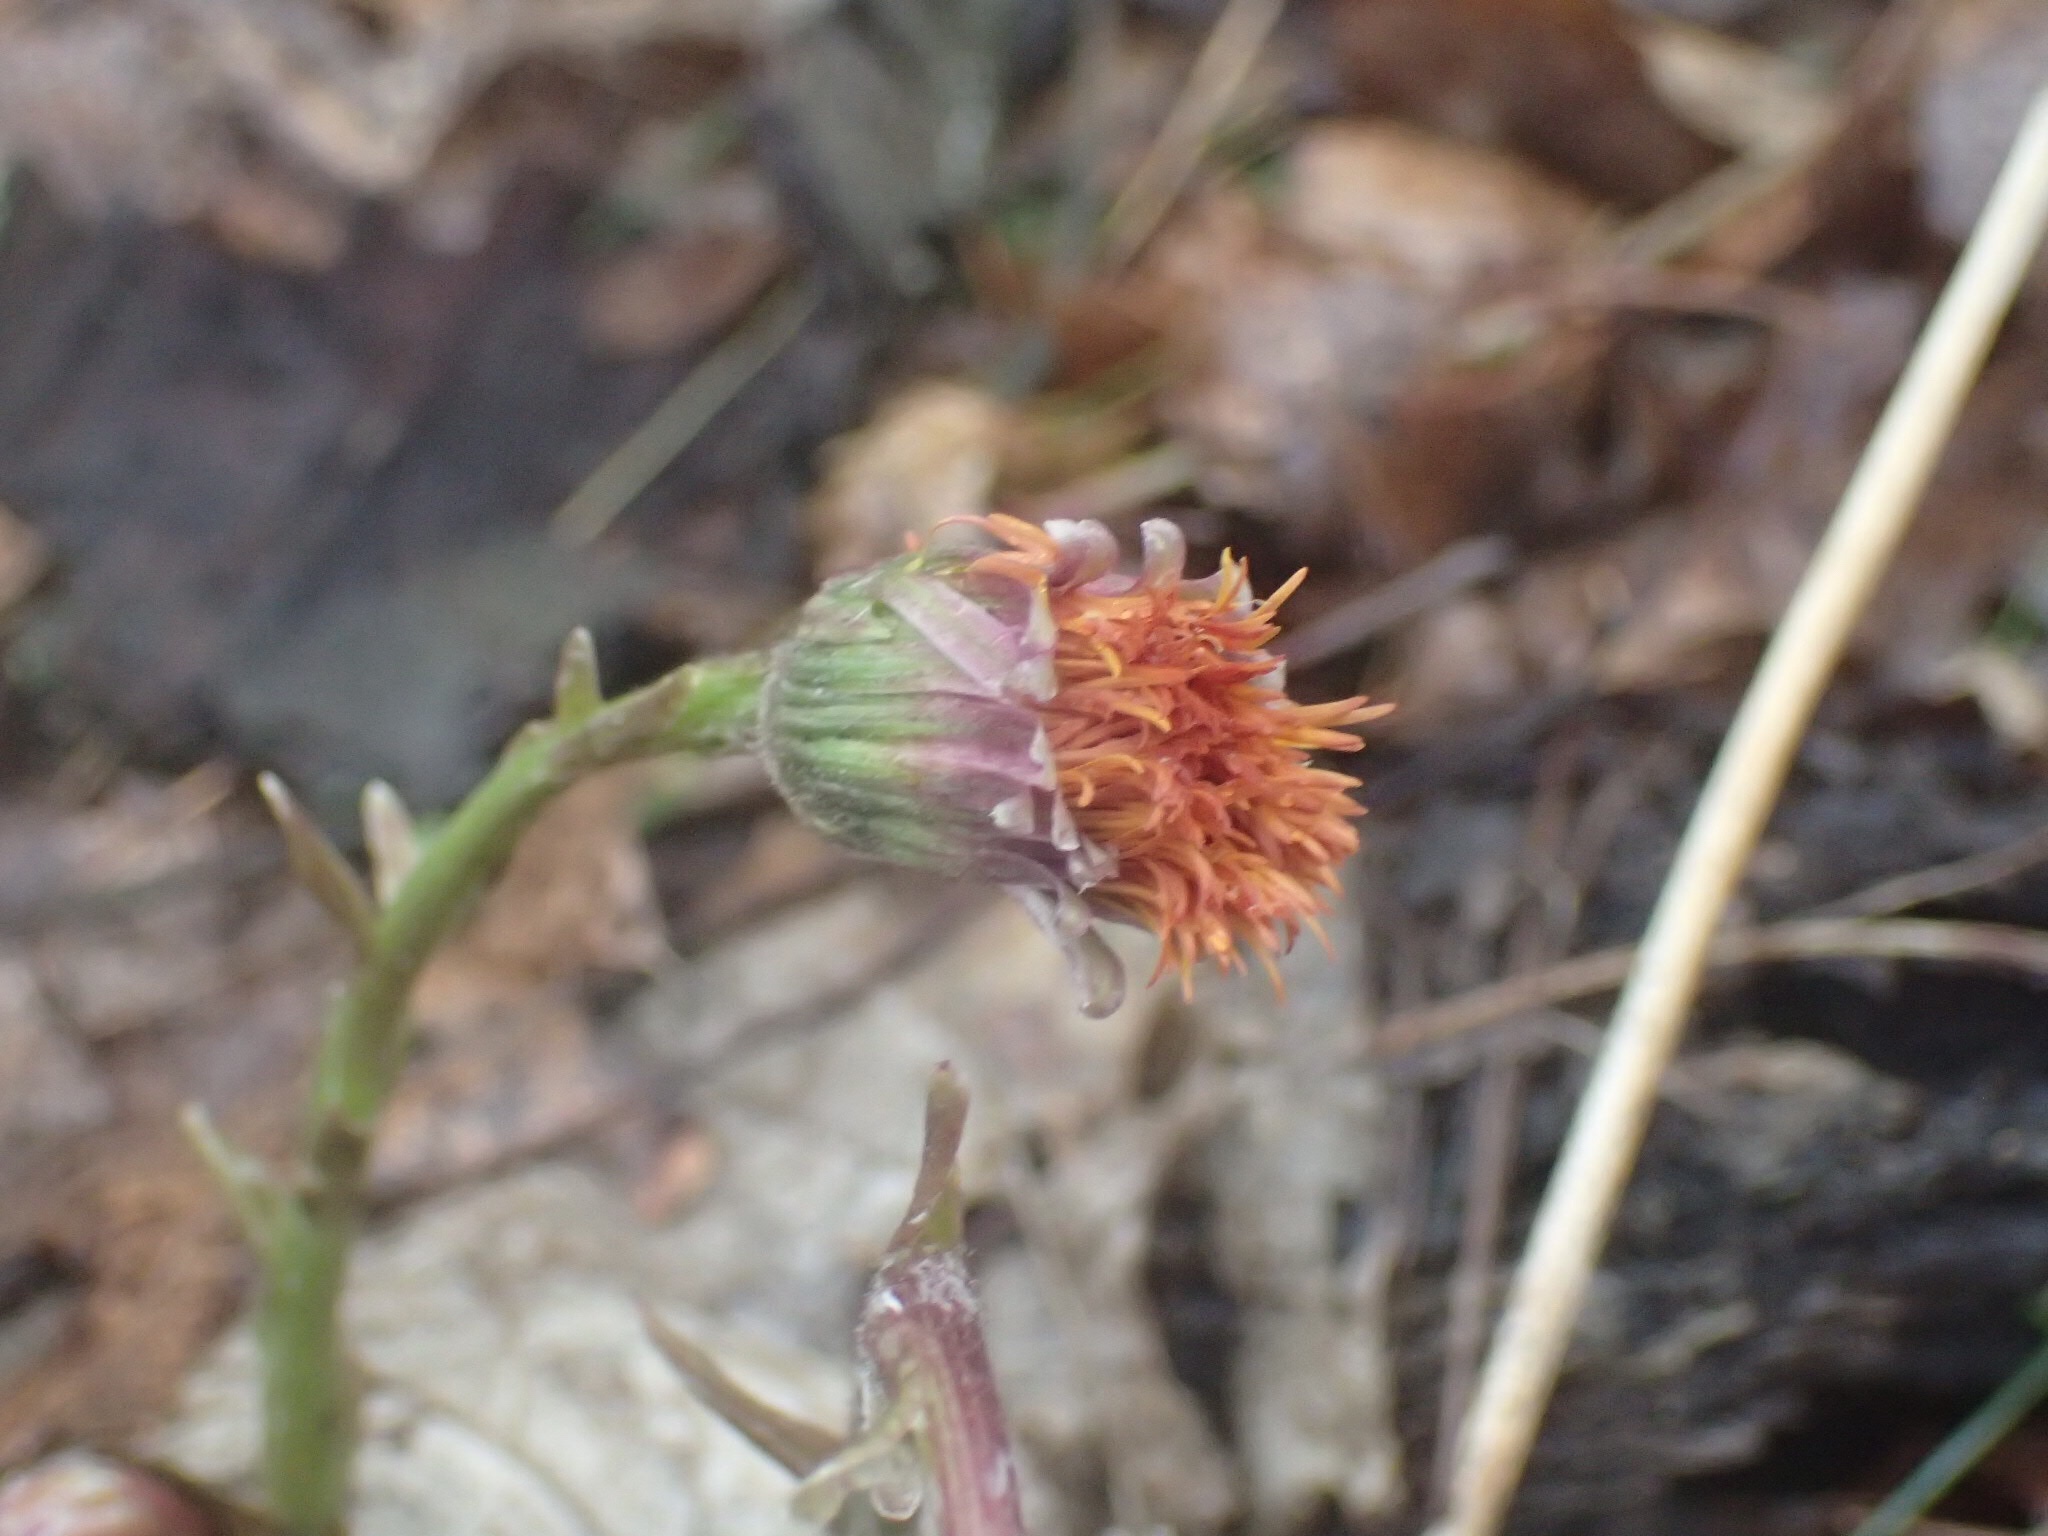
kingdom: Plantae
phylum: Tracheophyta
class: Magnoliopsida
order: Asterales
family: Asteraceae
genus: Tussilago
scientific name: Tussilago farfara
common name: Coltsfoot
